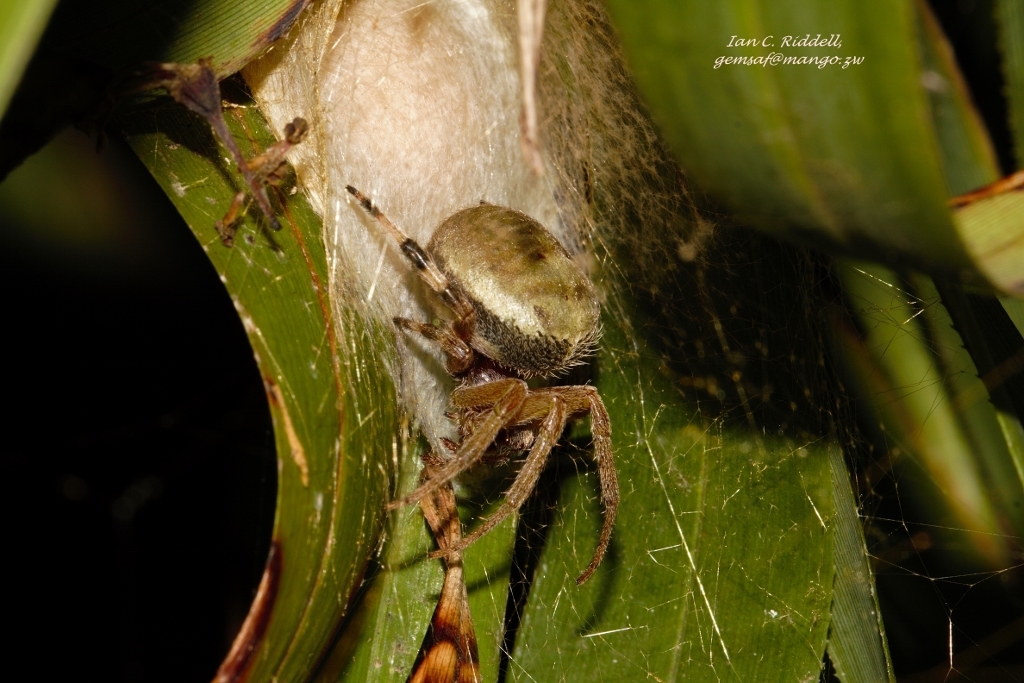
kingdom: Animalia
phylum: Arthropoda
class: Arachnida
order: Araneae
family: Araneidae
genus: Neoscona
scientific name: Neoscona rufipalpis
